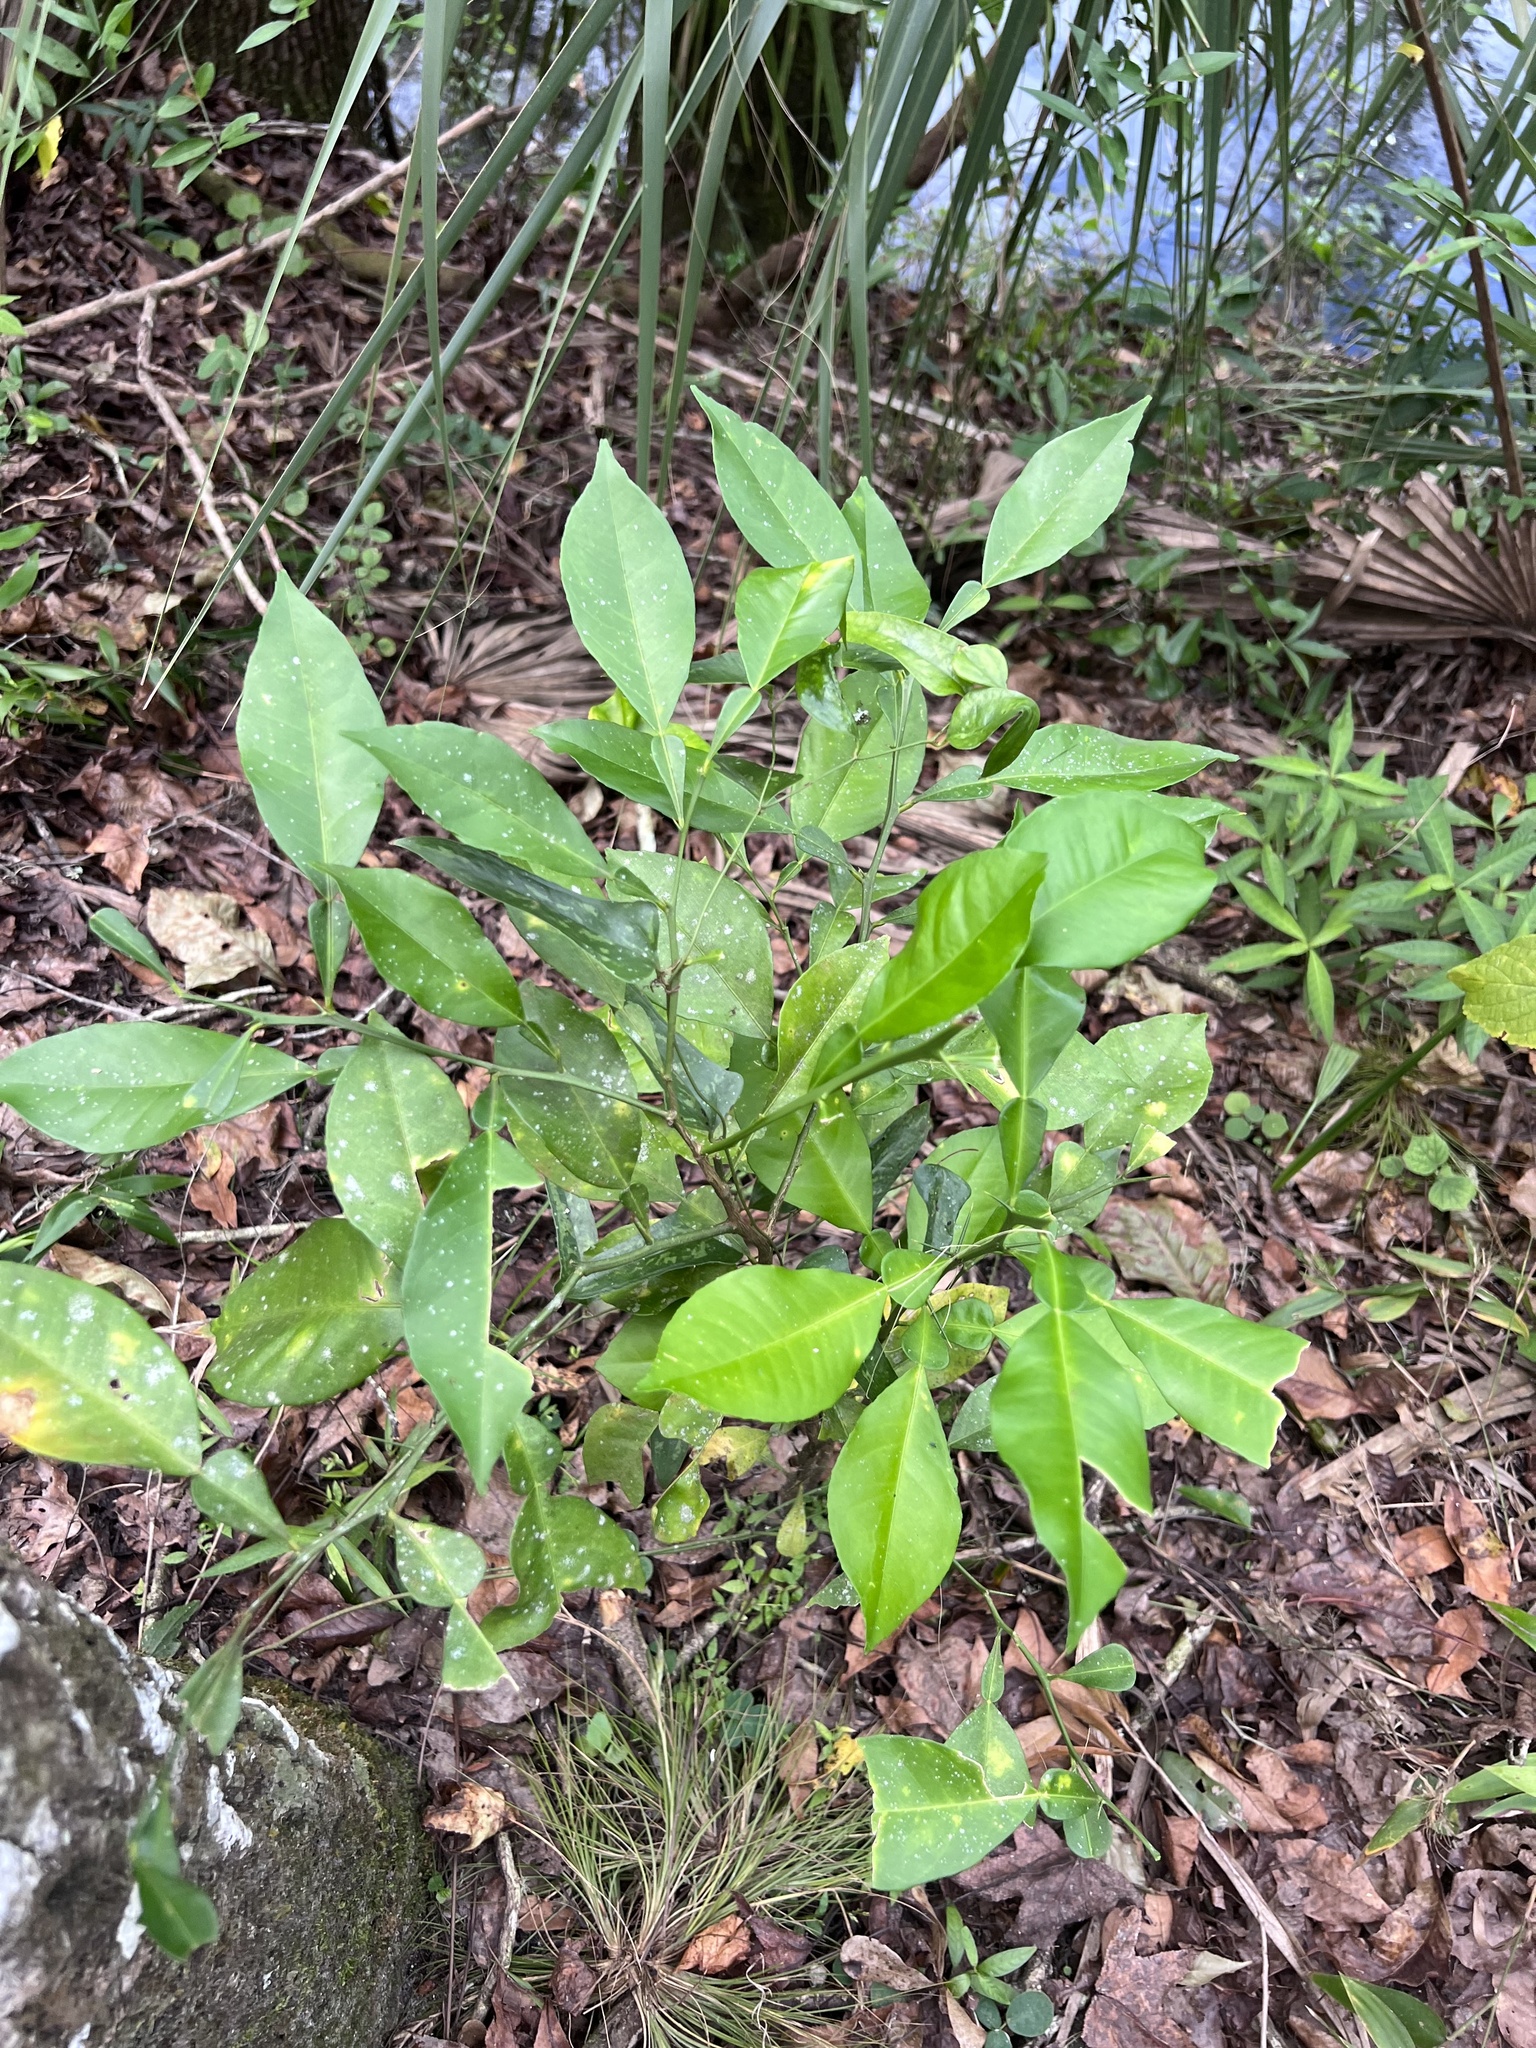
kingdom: Plantae
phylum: Tracheophyta
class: Magnoliopsida
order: Sapindales
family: Rutaceae
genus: Citrus
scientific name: Citrus aurantium
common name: Sour orange
